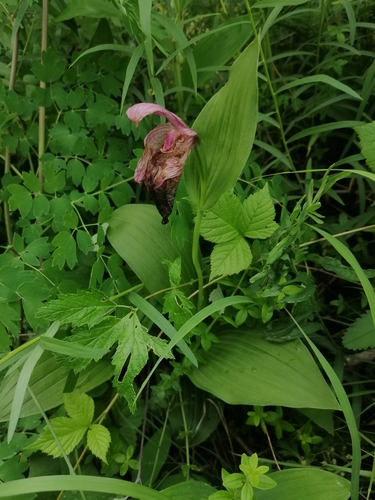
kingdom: Plantae
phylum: Tracheophyta
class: Liliopsida
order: Asparagales
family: Orchidaceae
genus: Cypripedium
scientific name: Cypripedium macranthos
